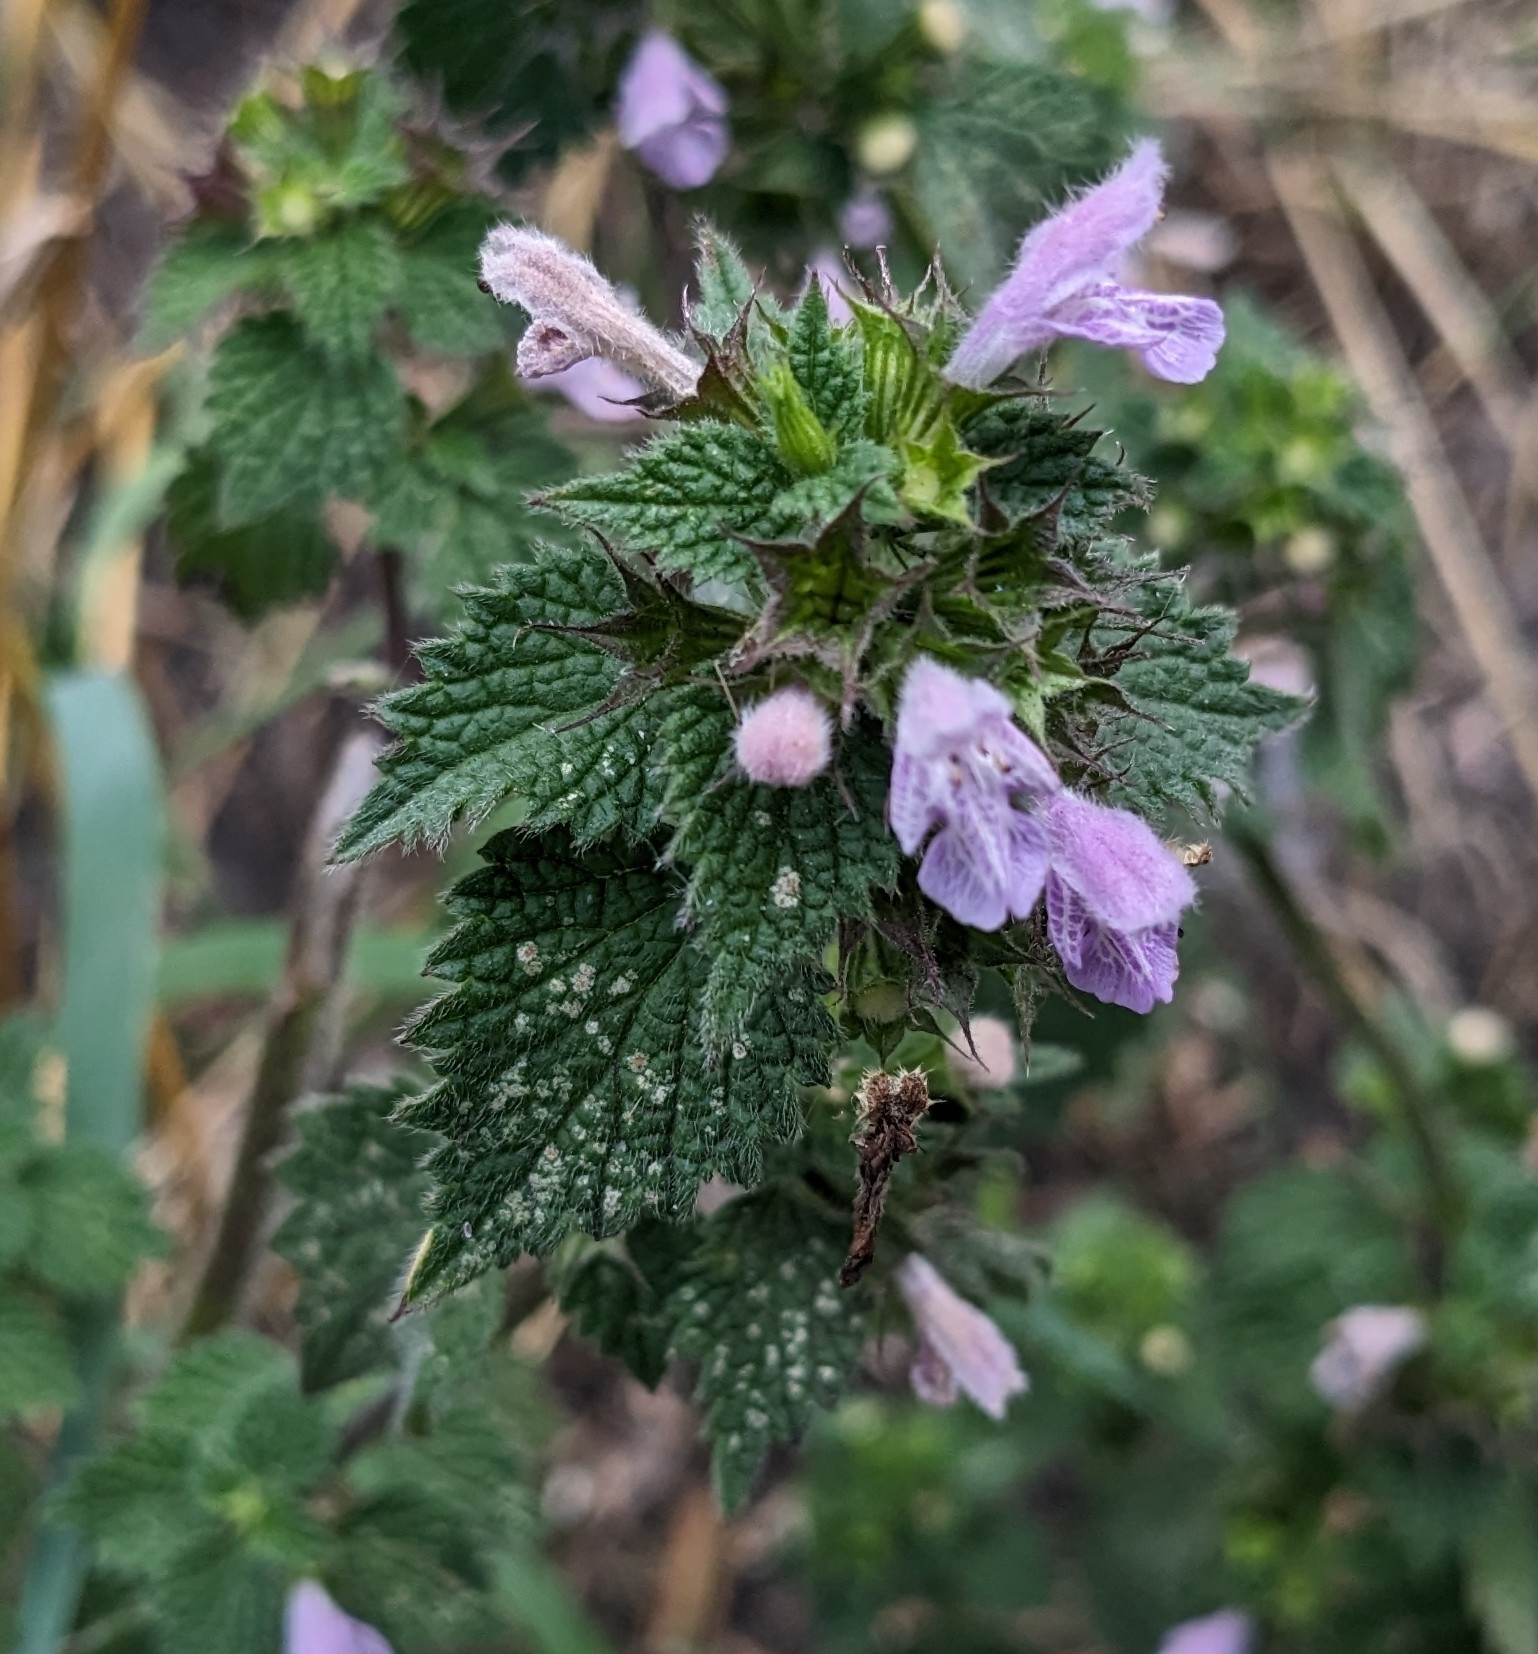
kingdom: Plantae
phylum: Tracheophyta
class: Magnoliopsida
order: Lamiales
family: Lamiaceae
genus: Ballota
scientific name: Ballota nigra
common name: Black horehound
